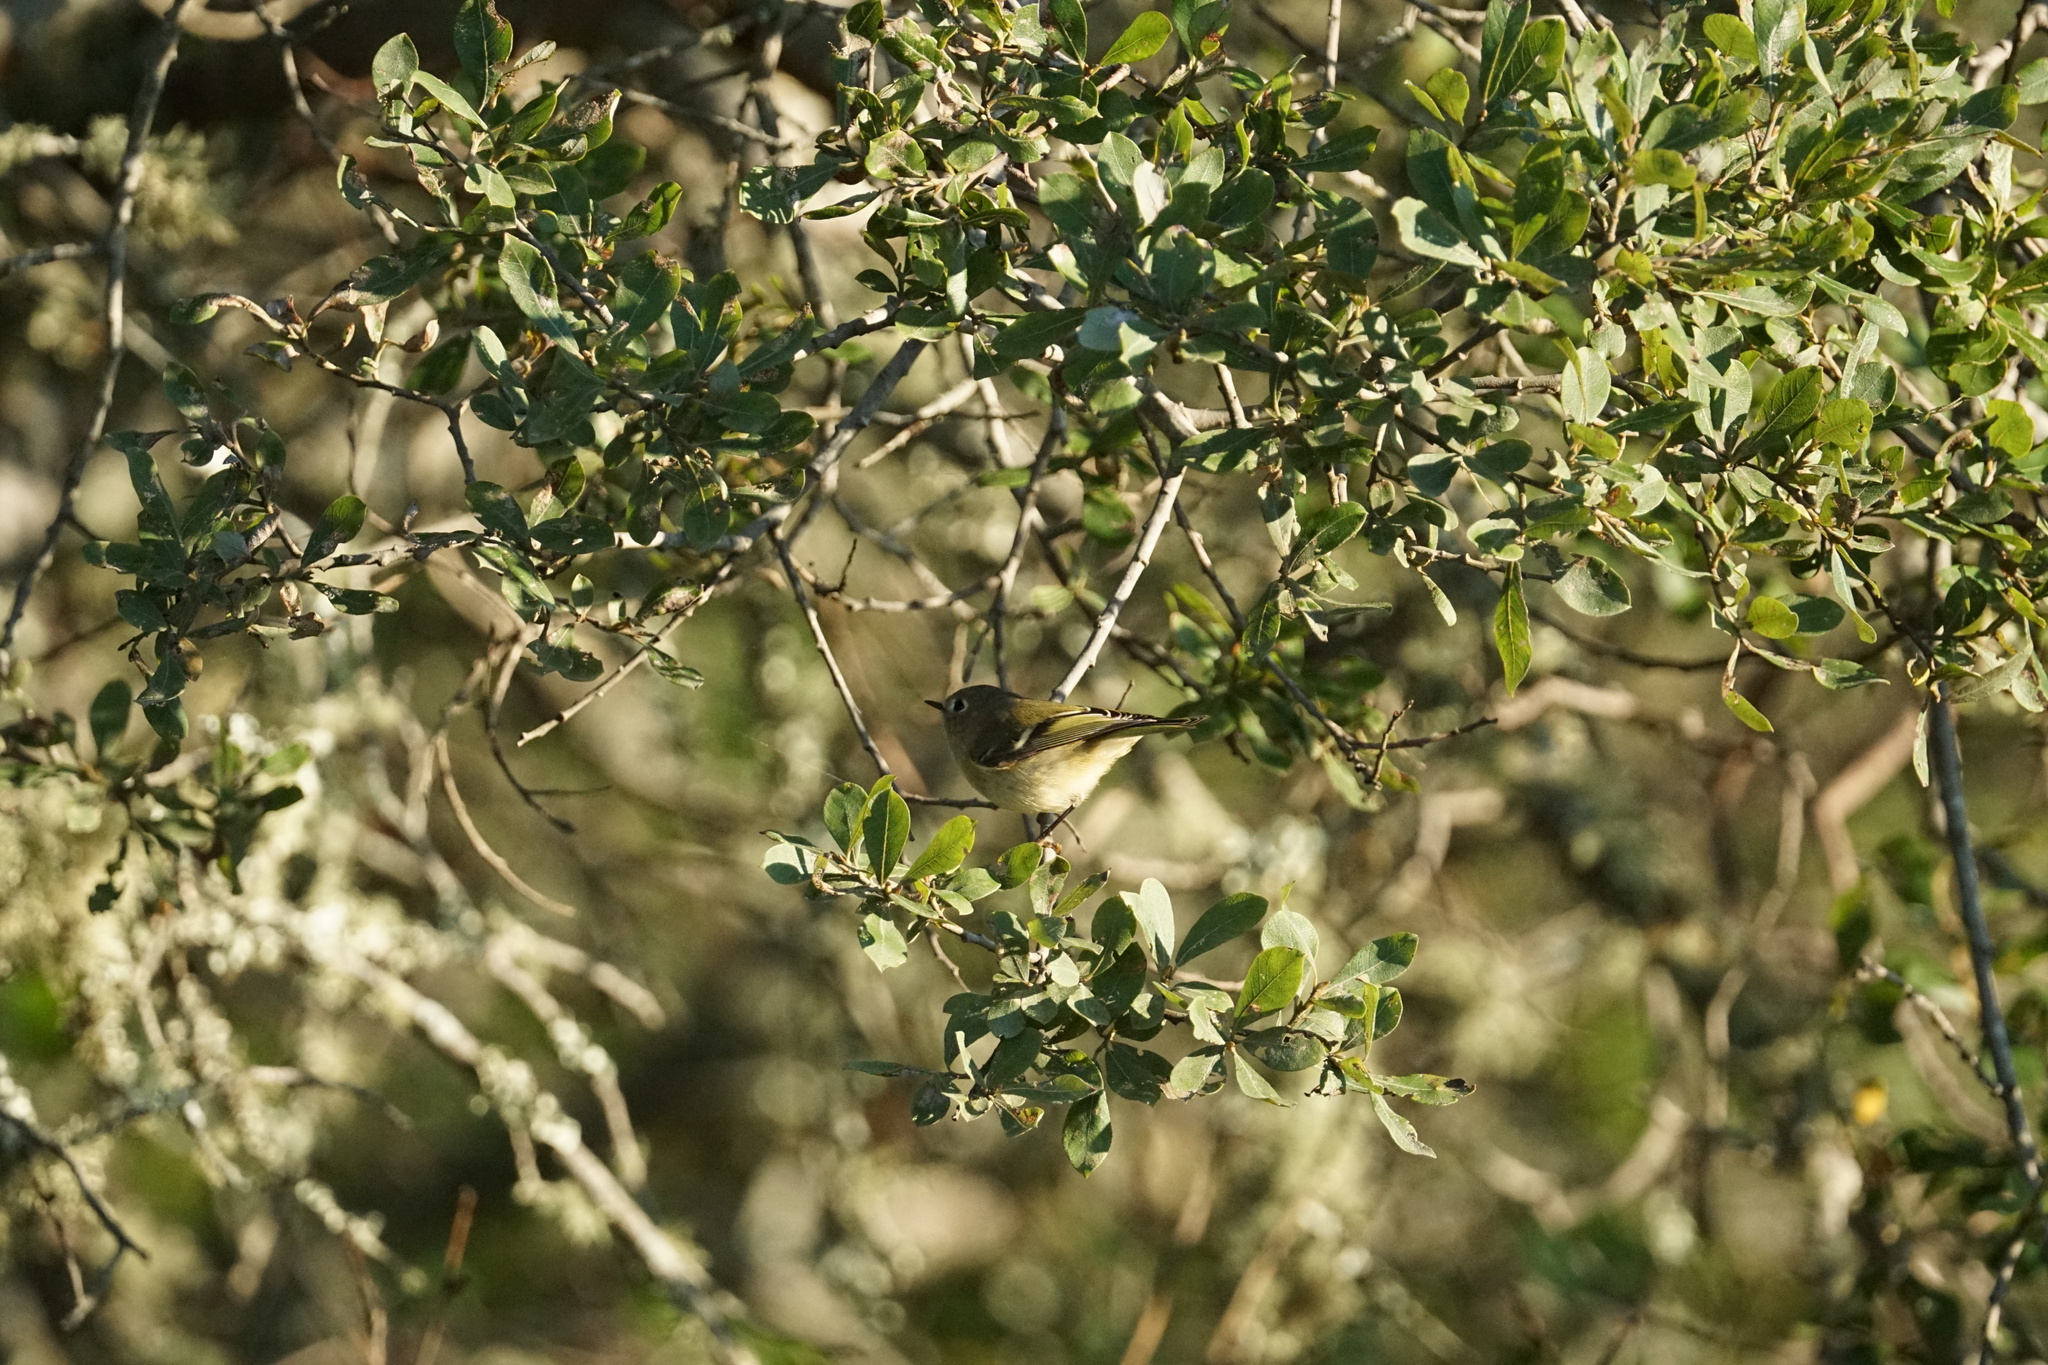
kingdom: Animalia
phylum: Chordata
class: Aves
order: Passeriformes
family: Regulidae
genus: Regulus
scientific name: Regulus calendula
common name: Ruby-crowned kinglet
